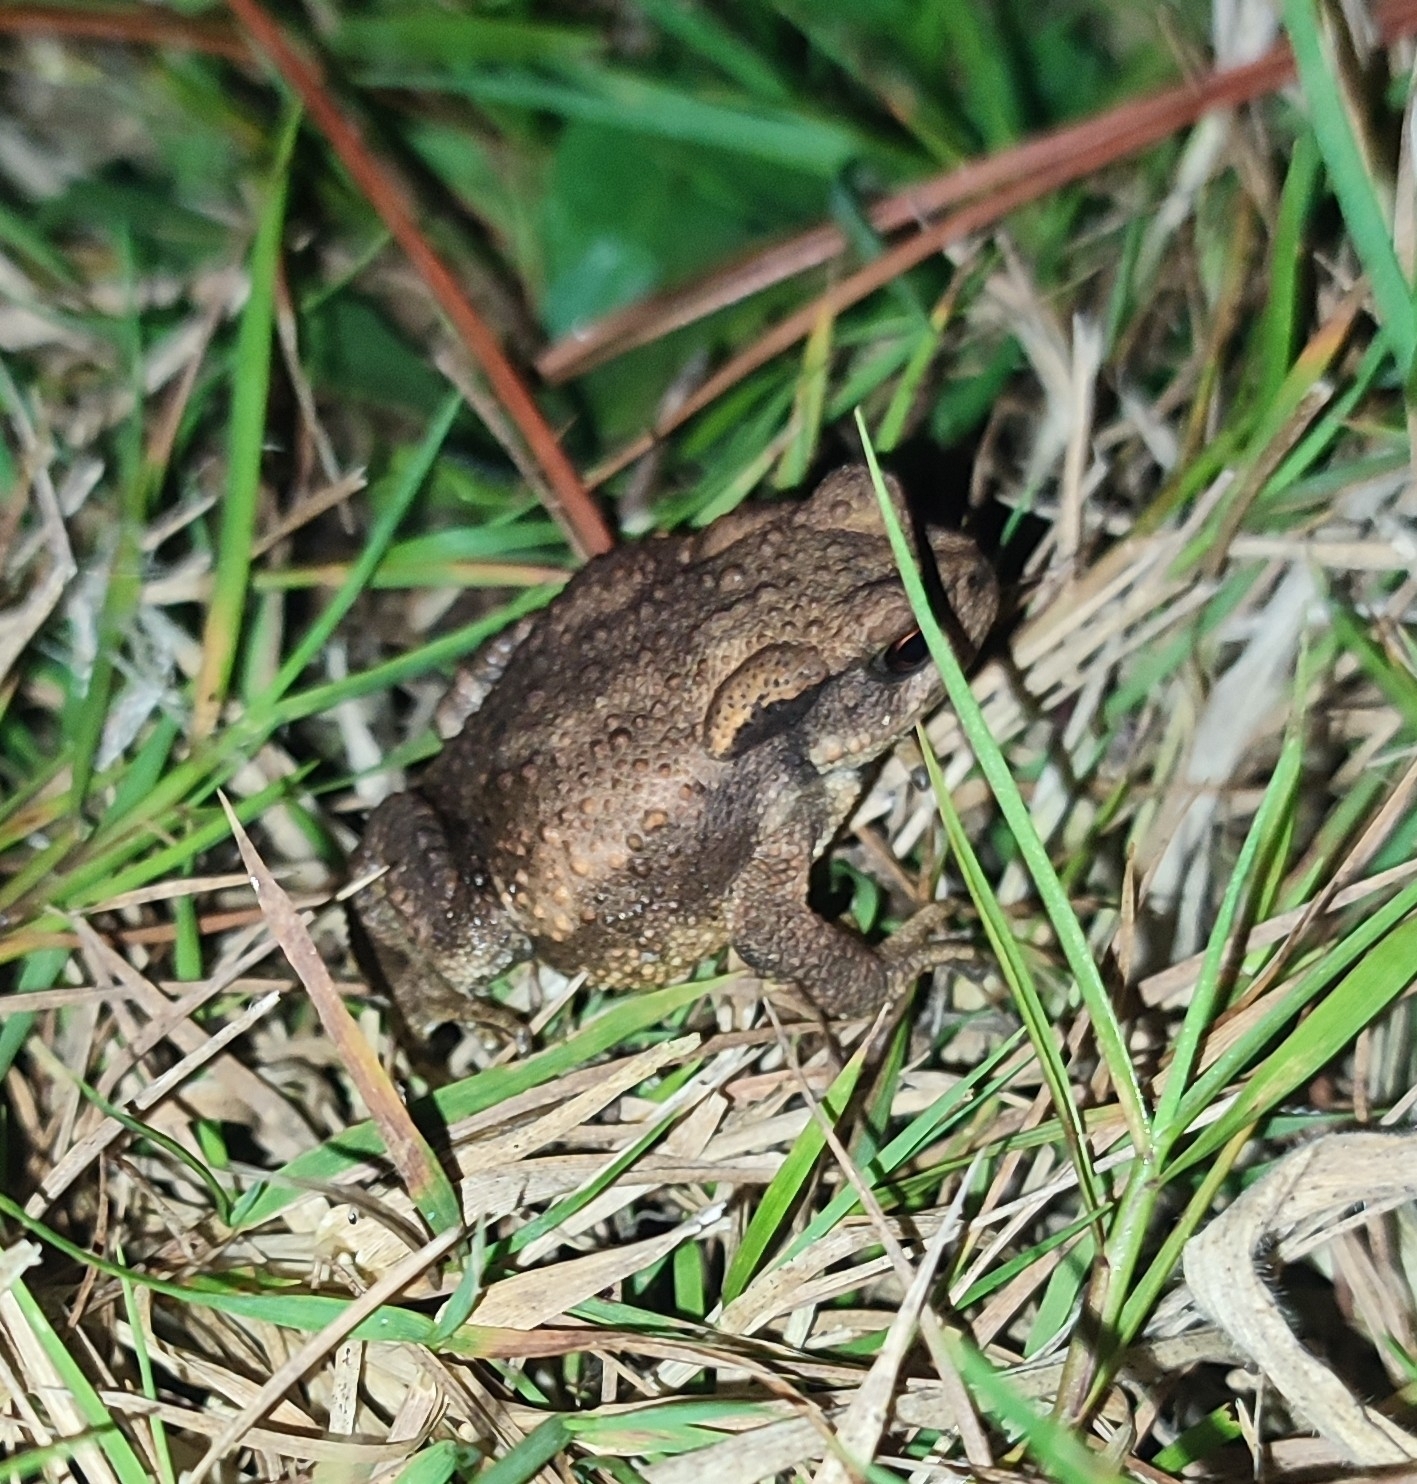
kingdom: Animalia
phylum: Chordata
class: Amphibia
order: Anura
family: Bufonidae
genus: Bufo
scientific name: Bufo spinosus
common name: Western common toad
